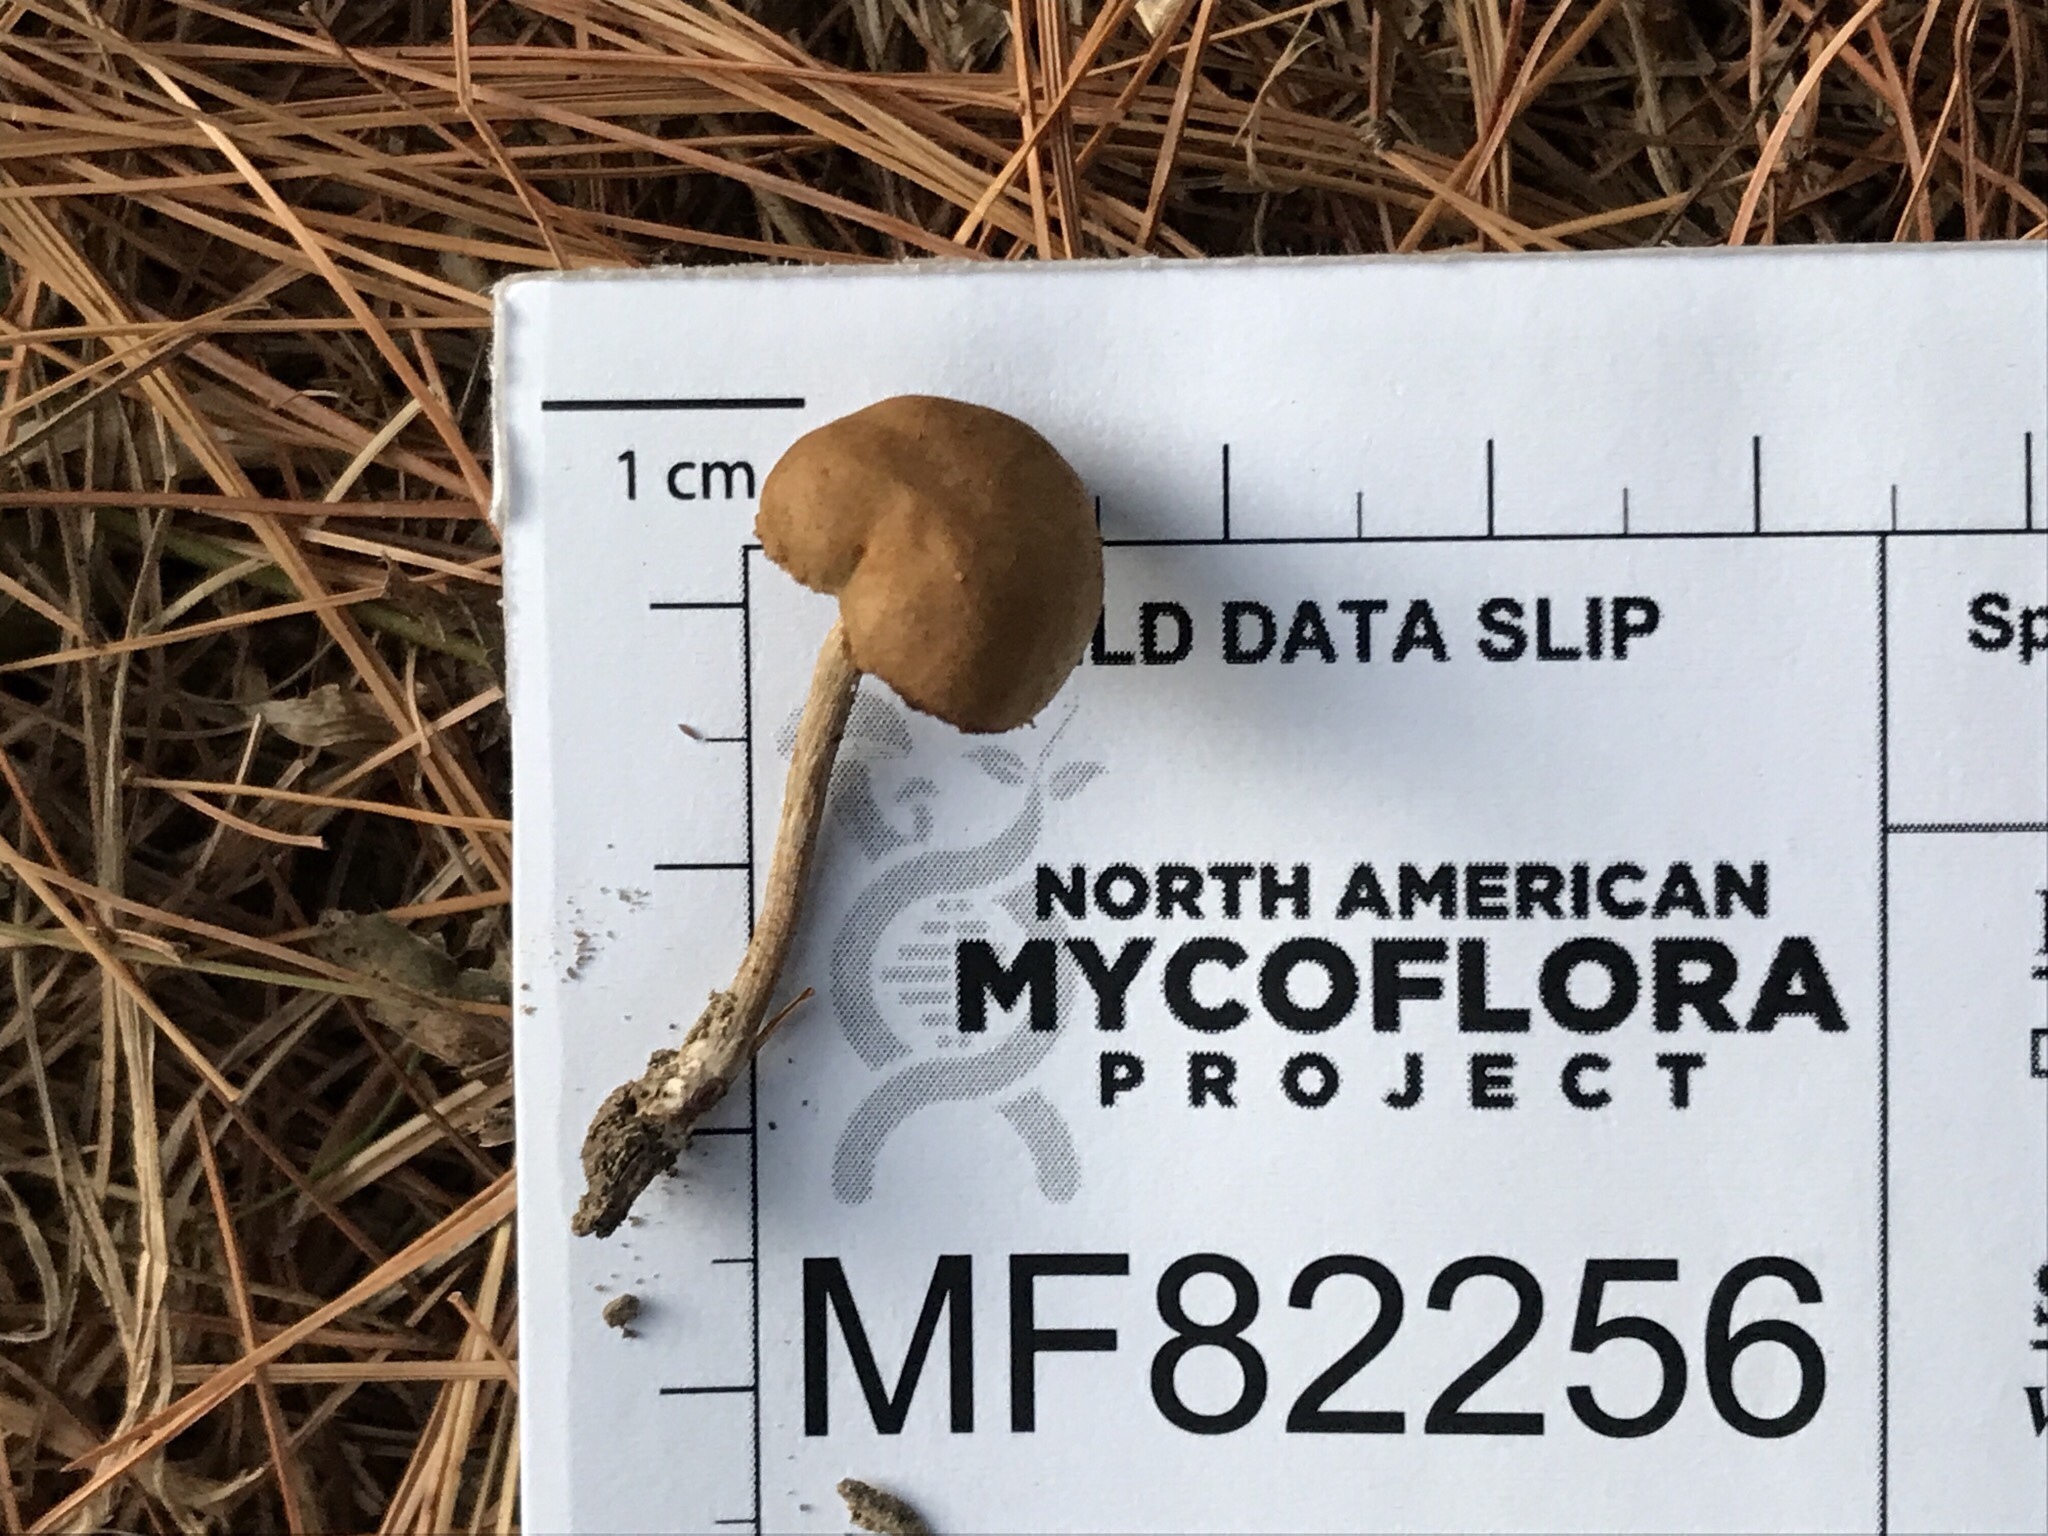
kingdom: Fungi
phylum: Basidiomycota
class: Agaricomycetes
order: Agaricales
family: Crepidotaceae
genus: Simocybe
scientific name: Simocybe serrulata
